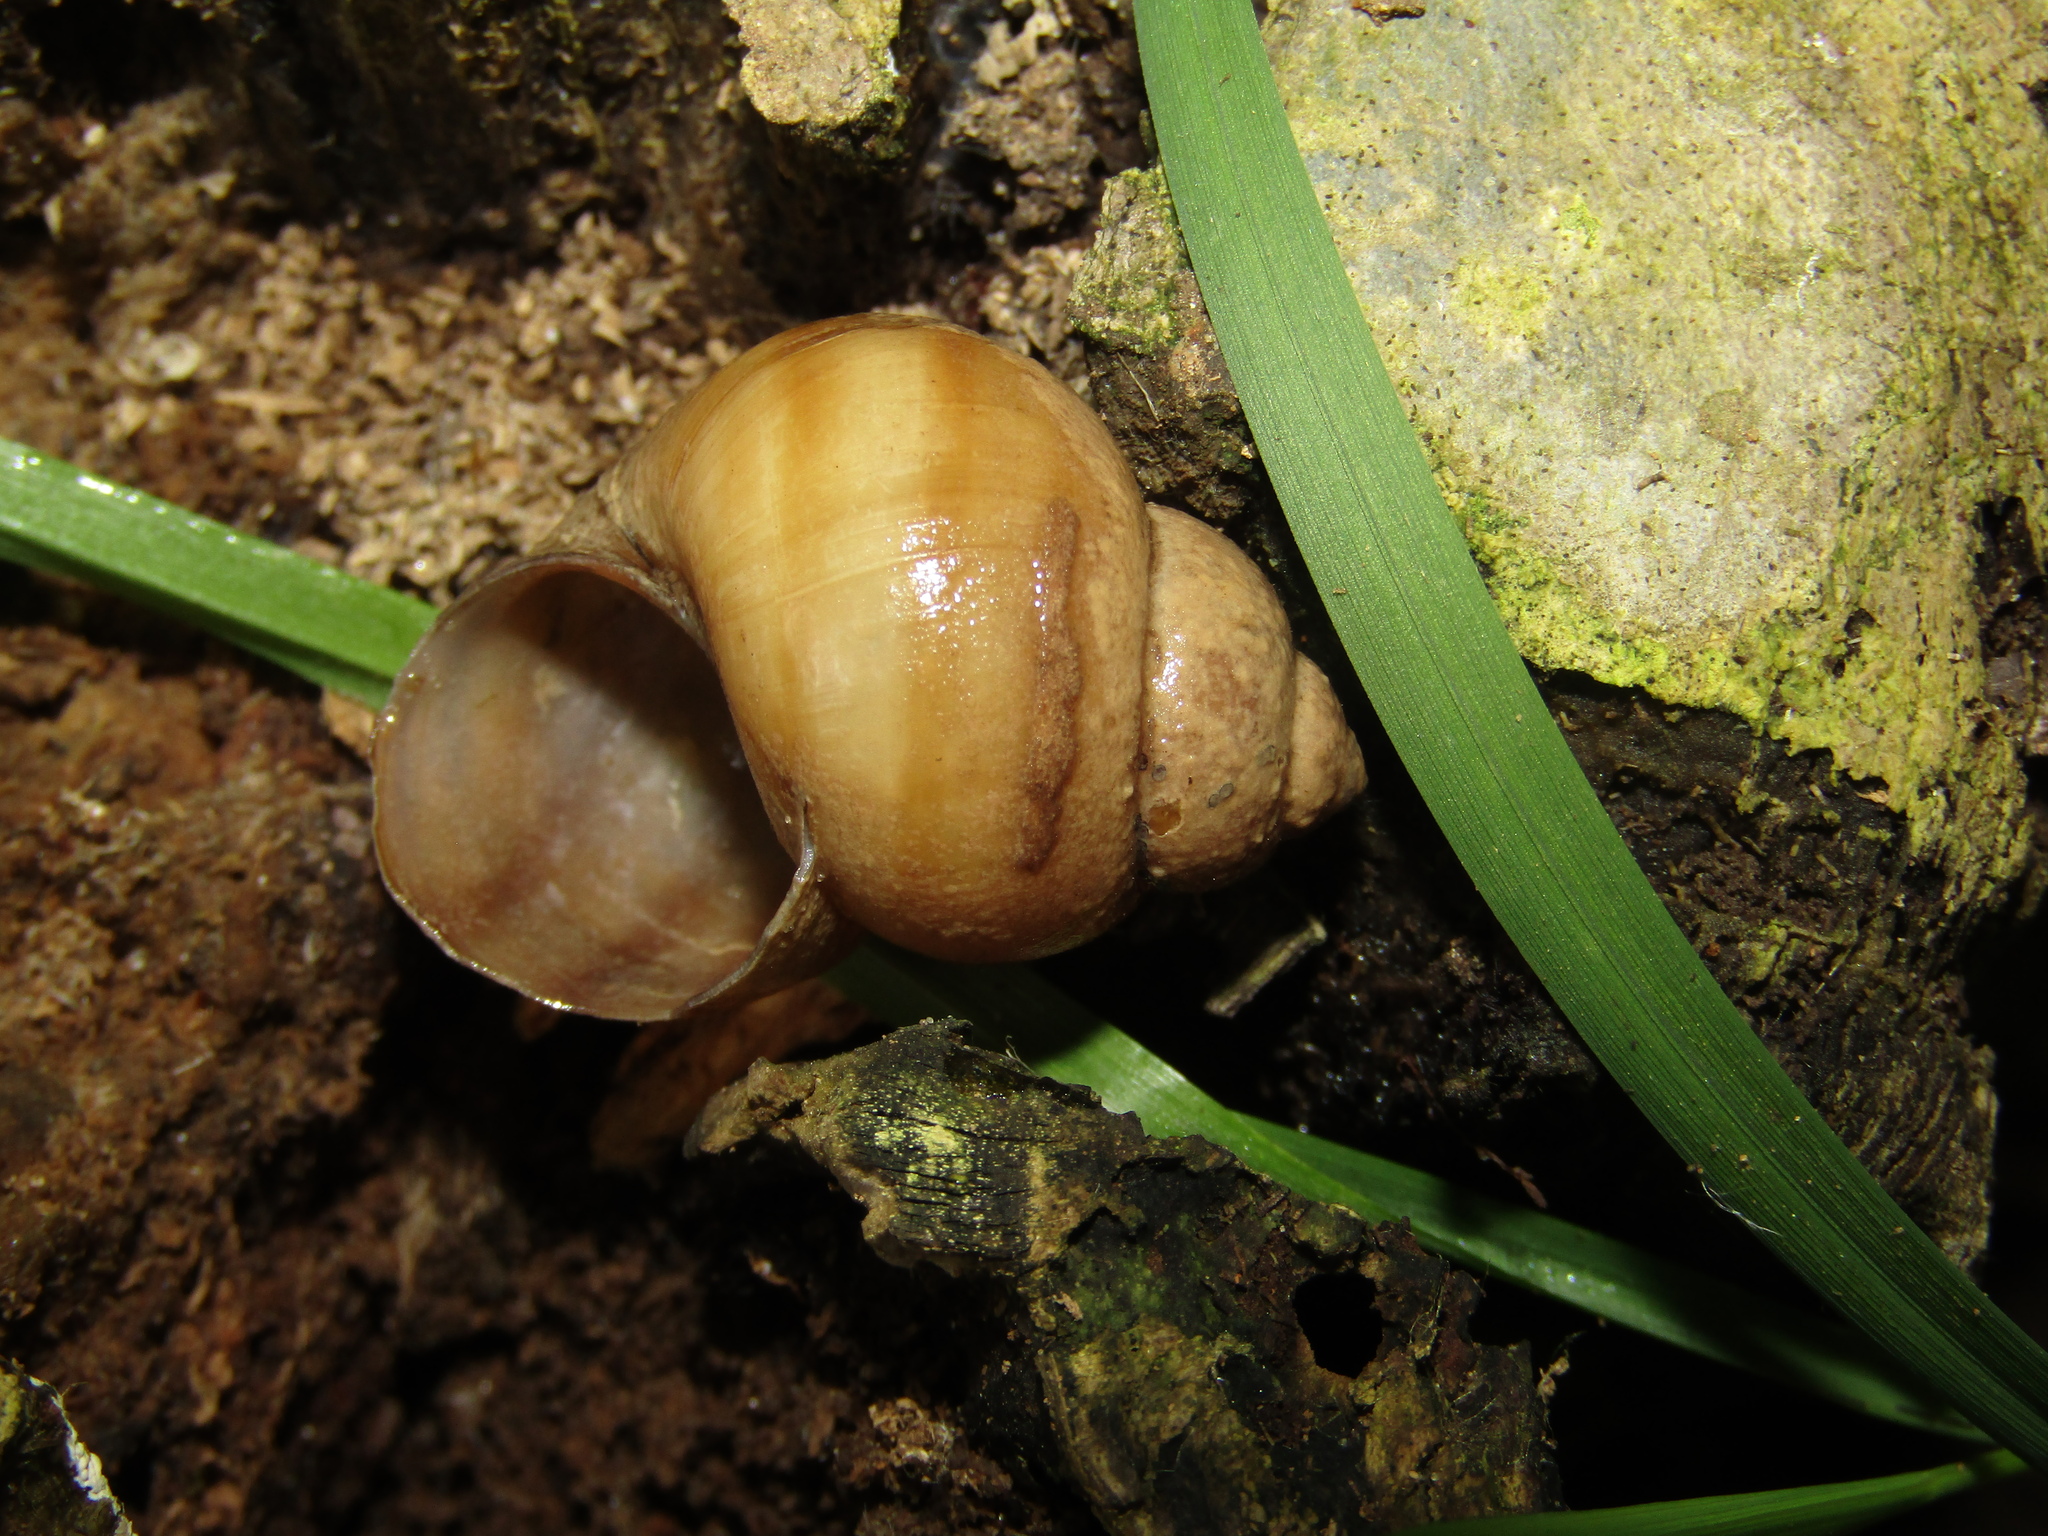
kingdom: Animalia
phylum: Mollusca
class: Gastropoda
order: Architaenioglossa
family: Viviparidae
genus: Viviparus
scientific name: Viviparus viviparus
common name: River snail
